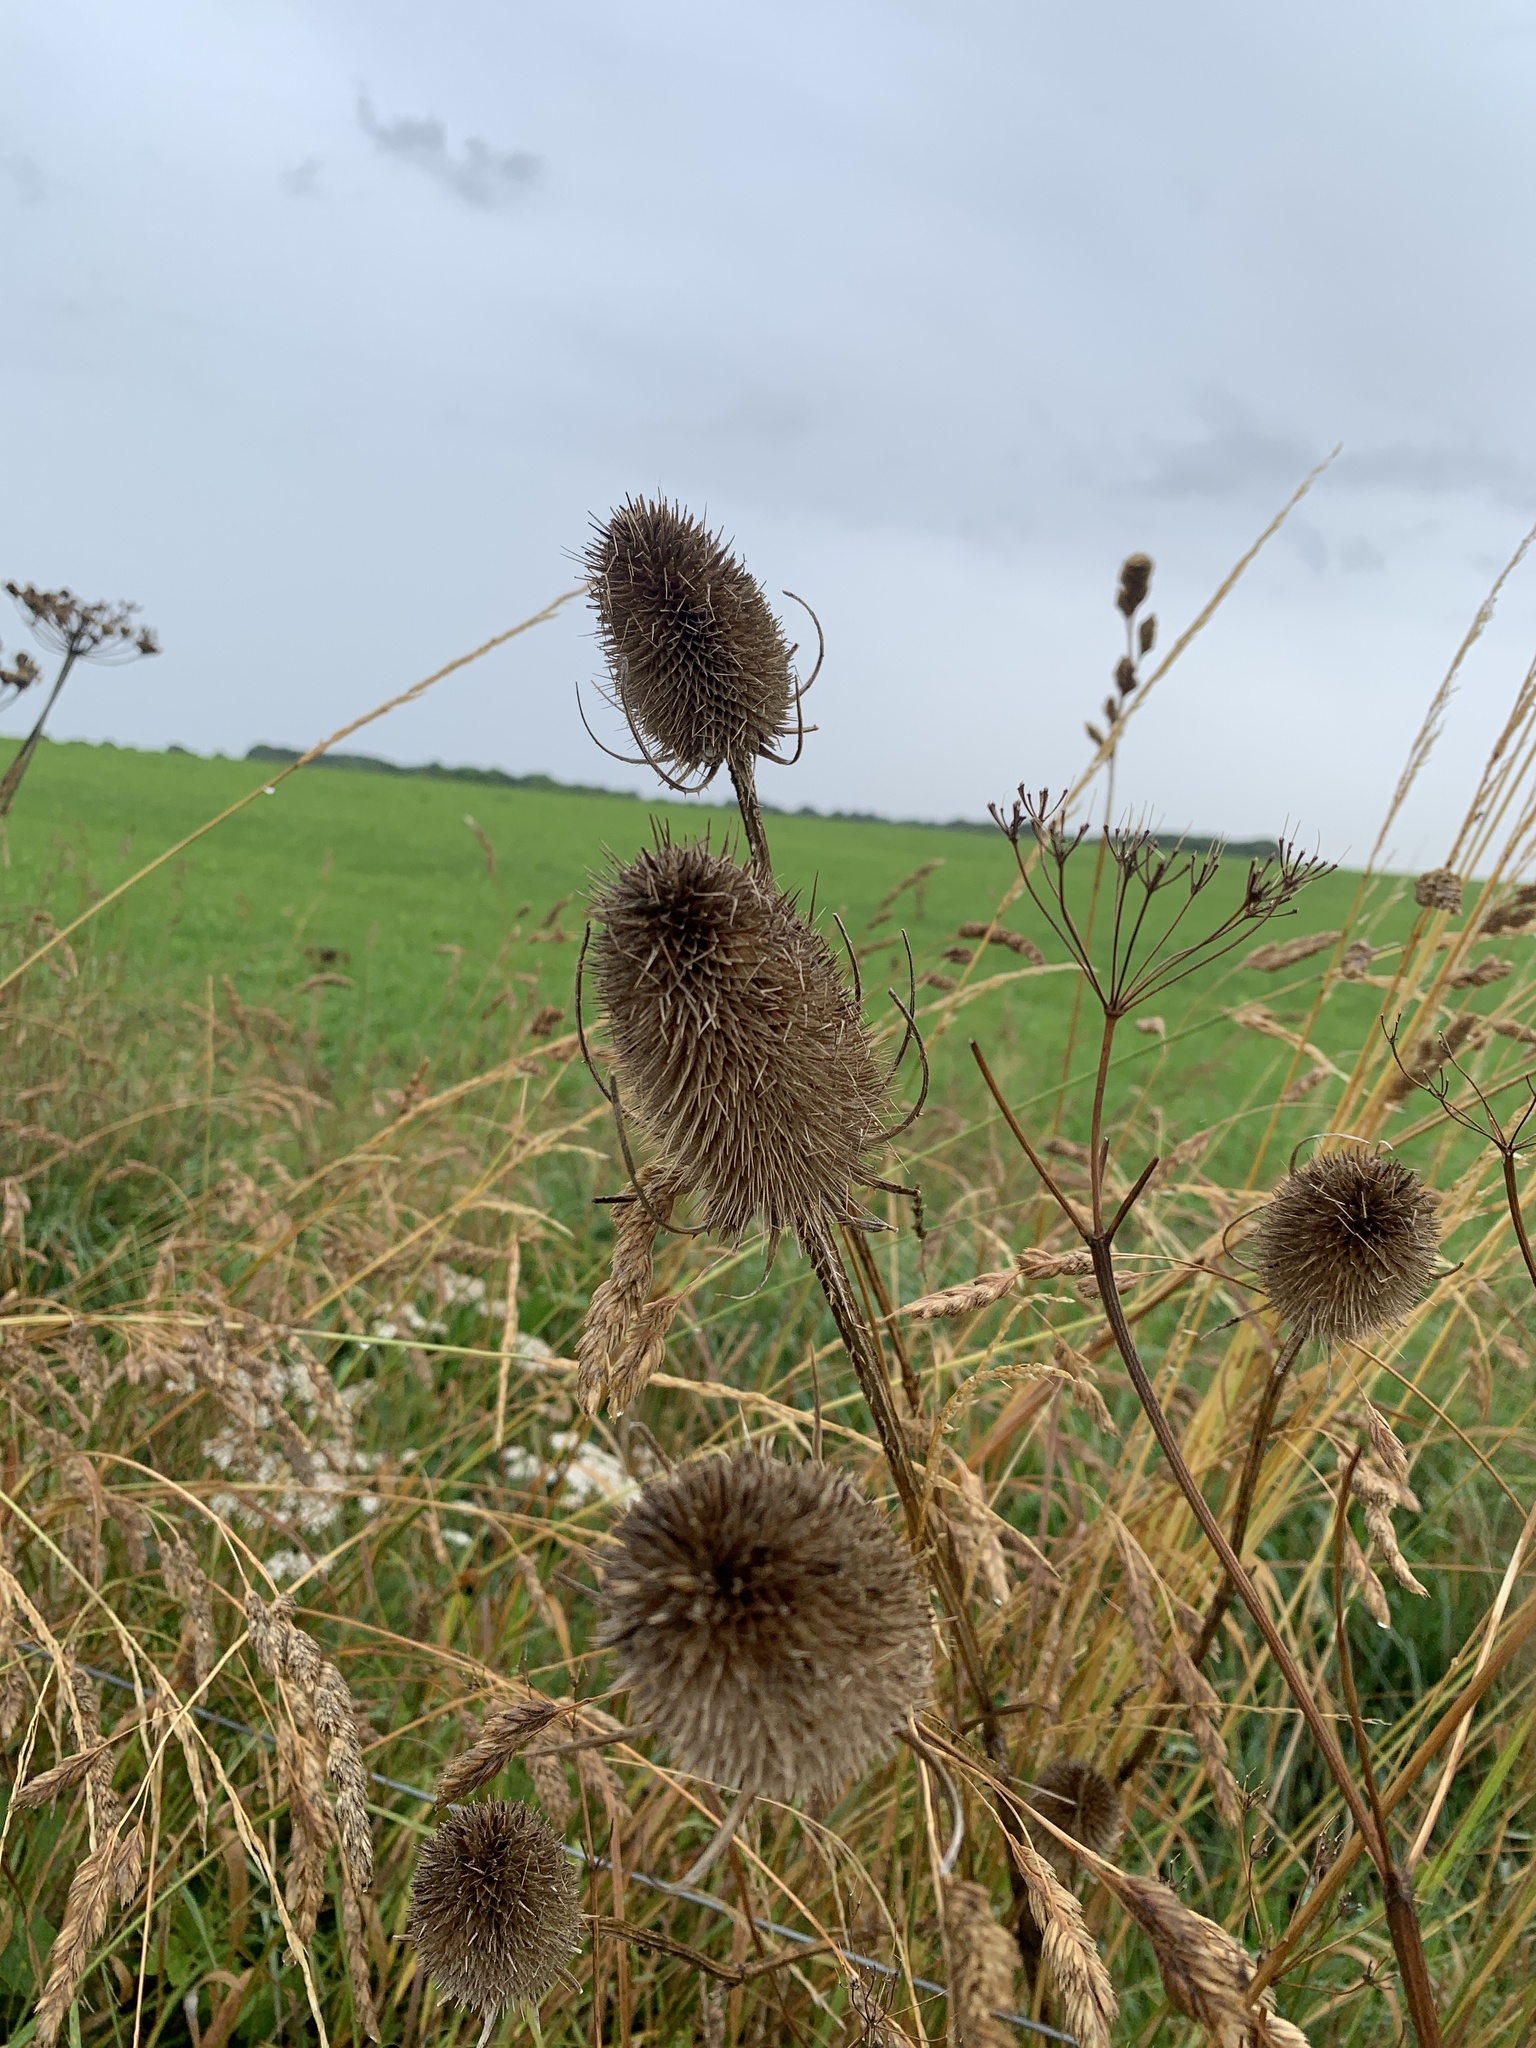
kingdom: Plantae
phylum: Tracheophyta
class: Magnoliopsida
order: Dipsacales
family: Caprifoliaceae
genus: Dipsacus
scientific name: Dipsacus fullonum
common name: Teasel
